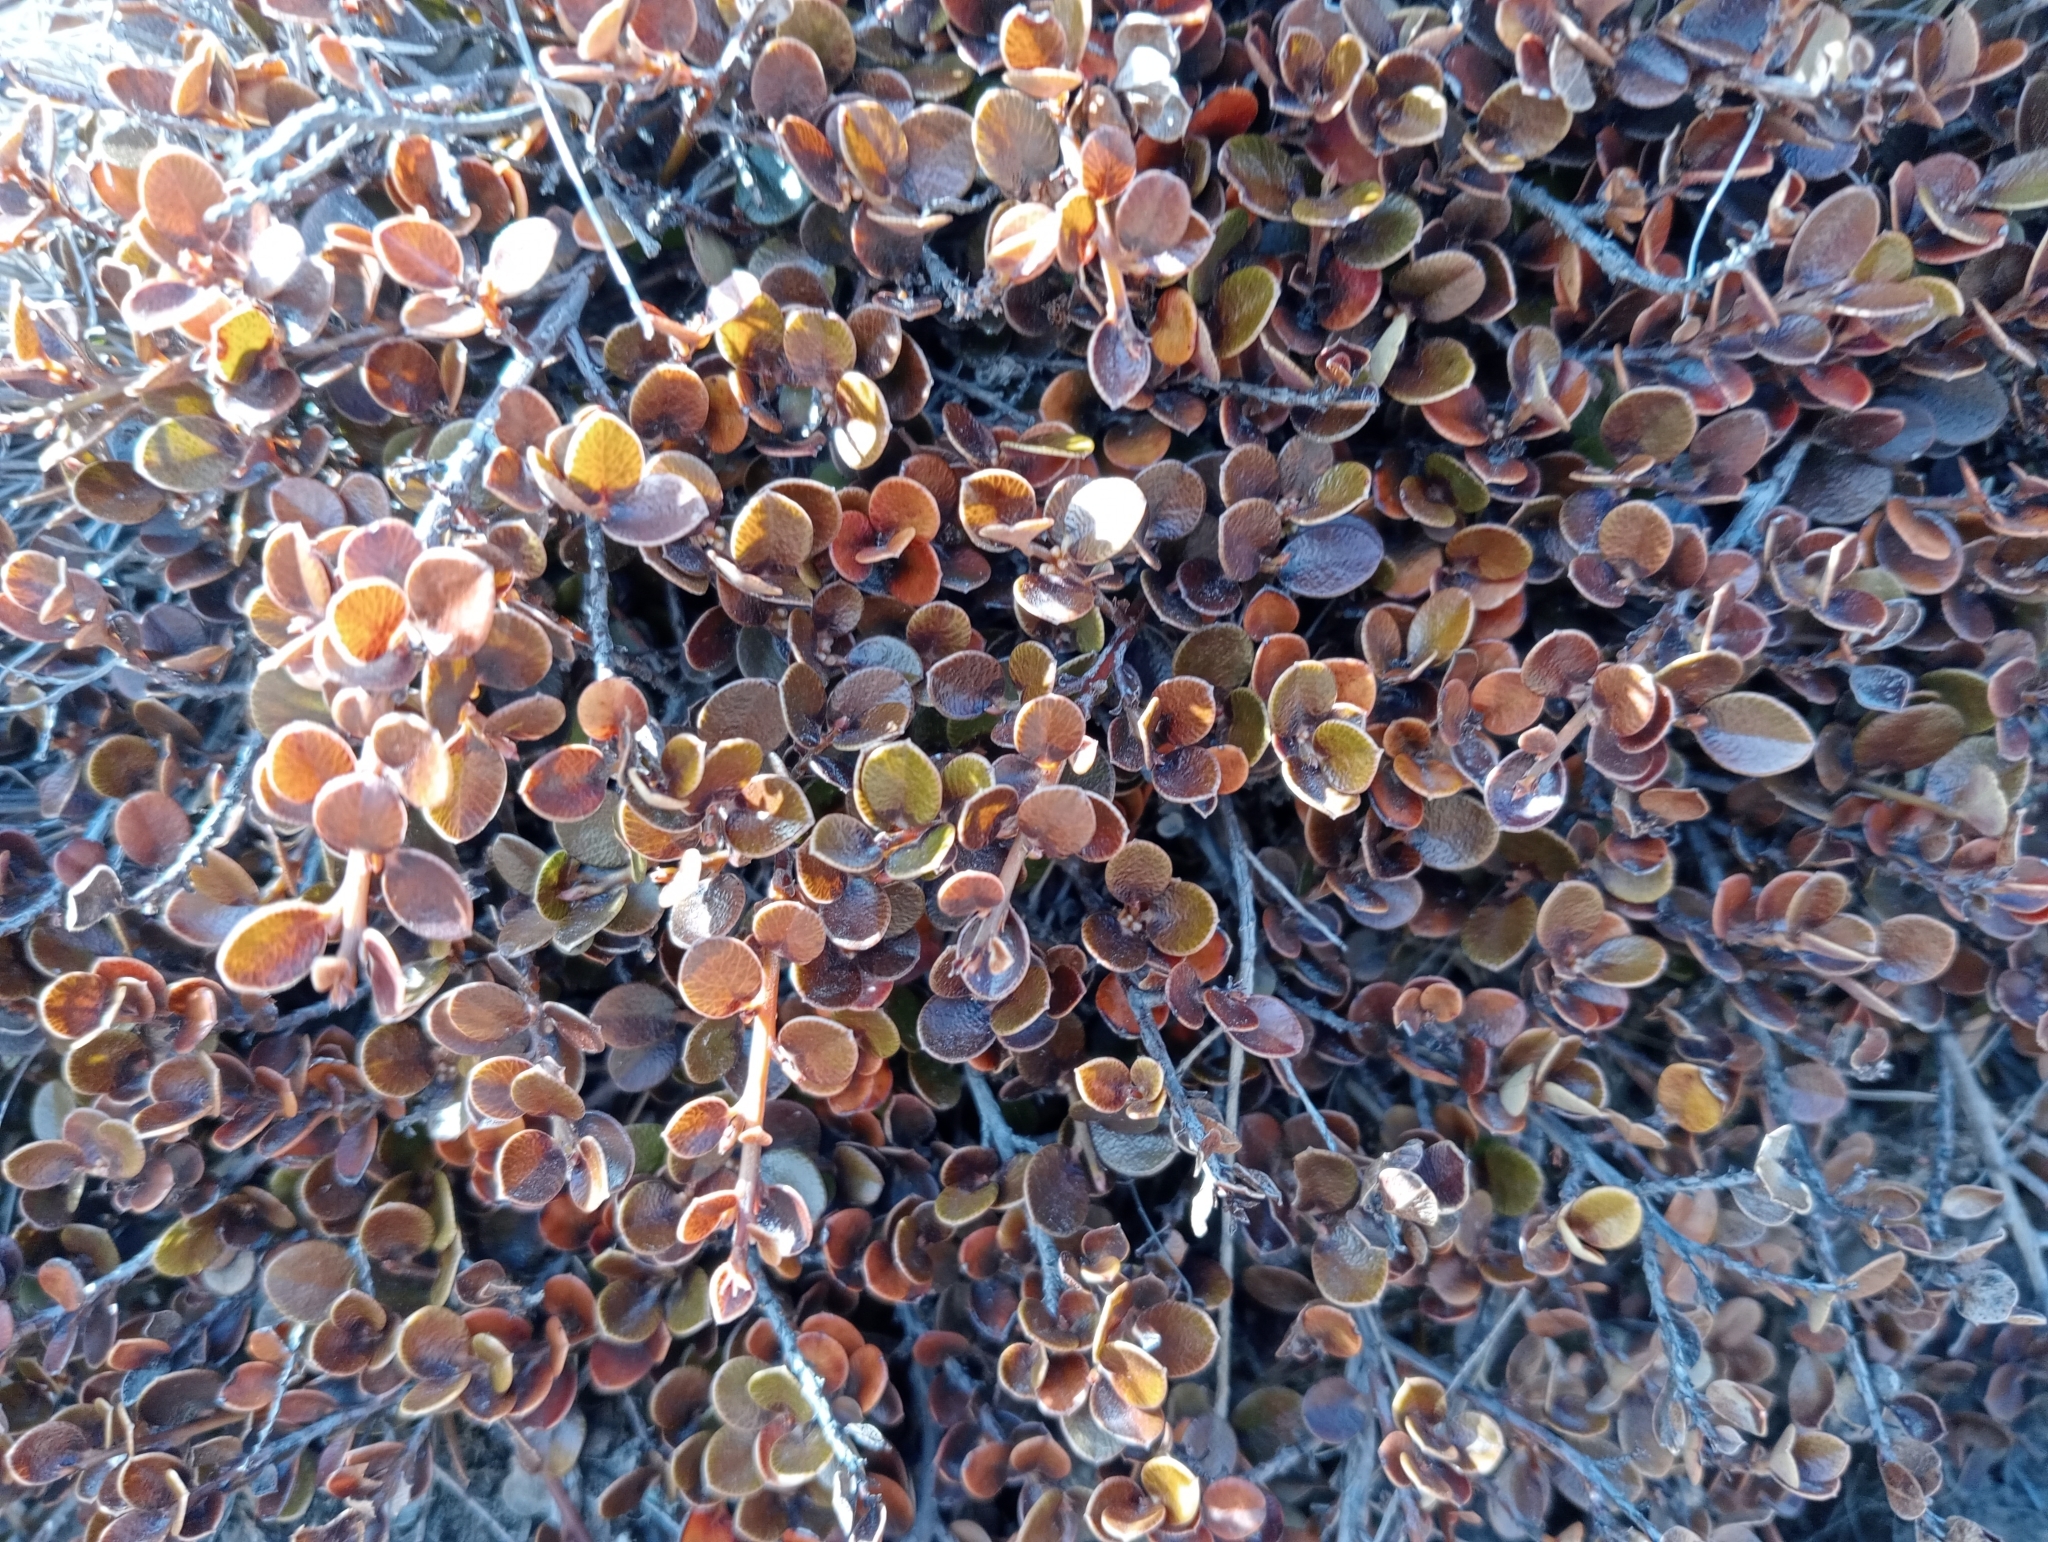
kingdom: Plantae
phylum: Tracheophyta
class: Magnoliopsida
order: Ericales
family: Primulaceae
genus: Myrsine
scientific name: Myrsine nummularia
